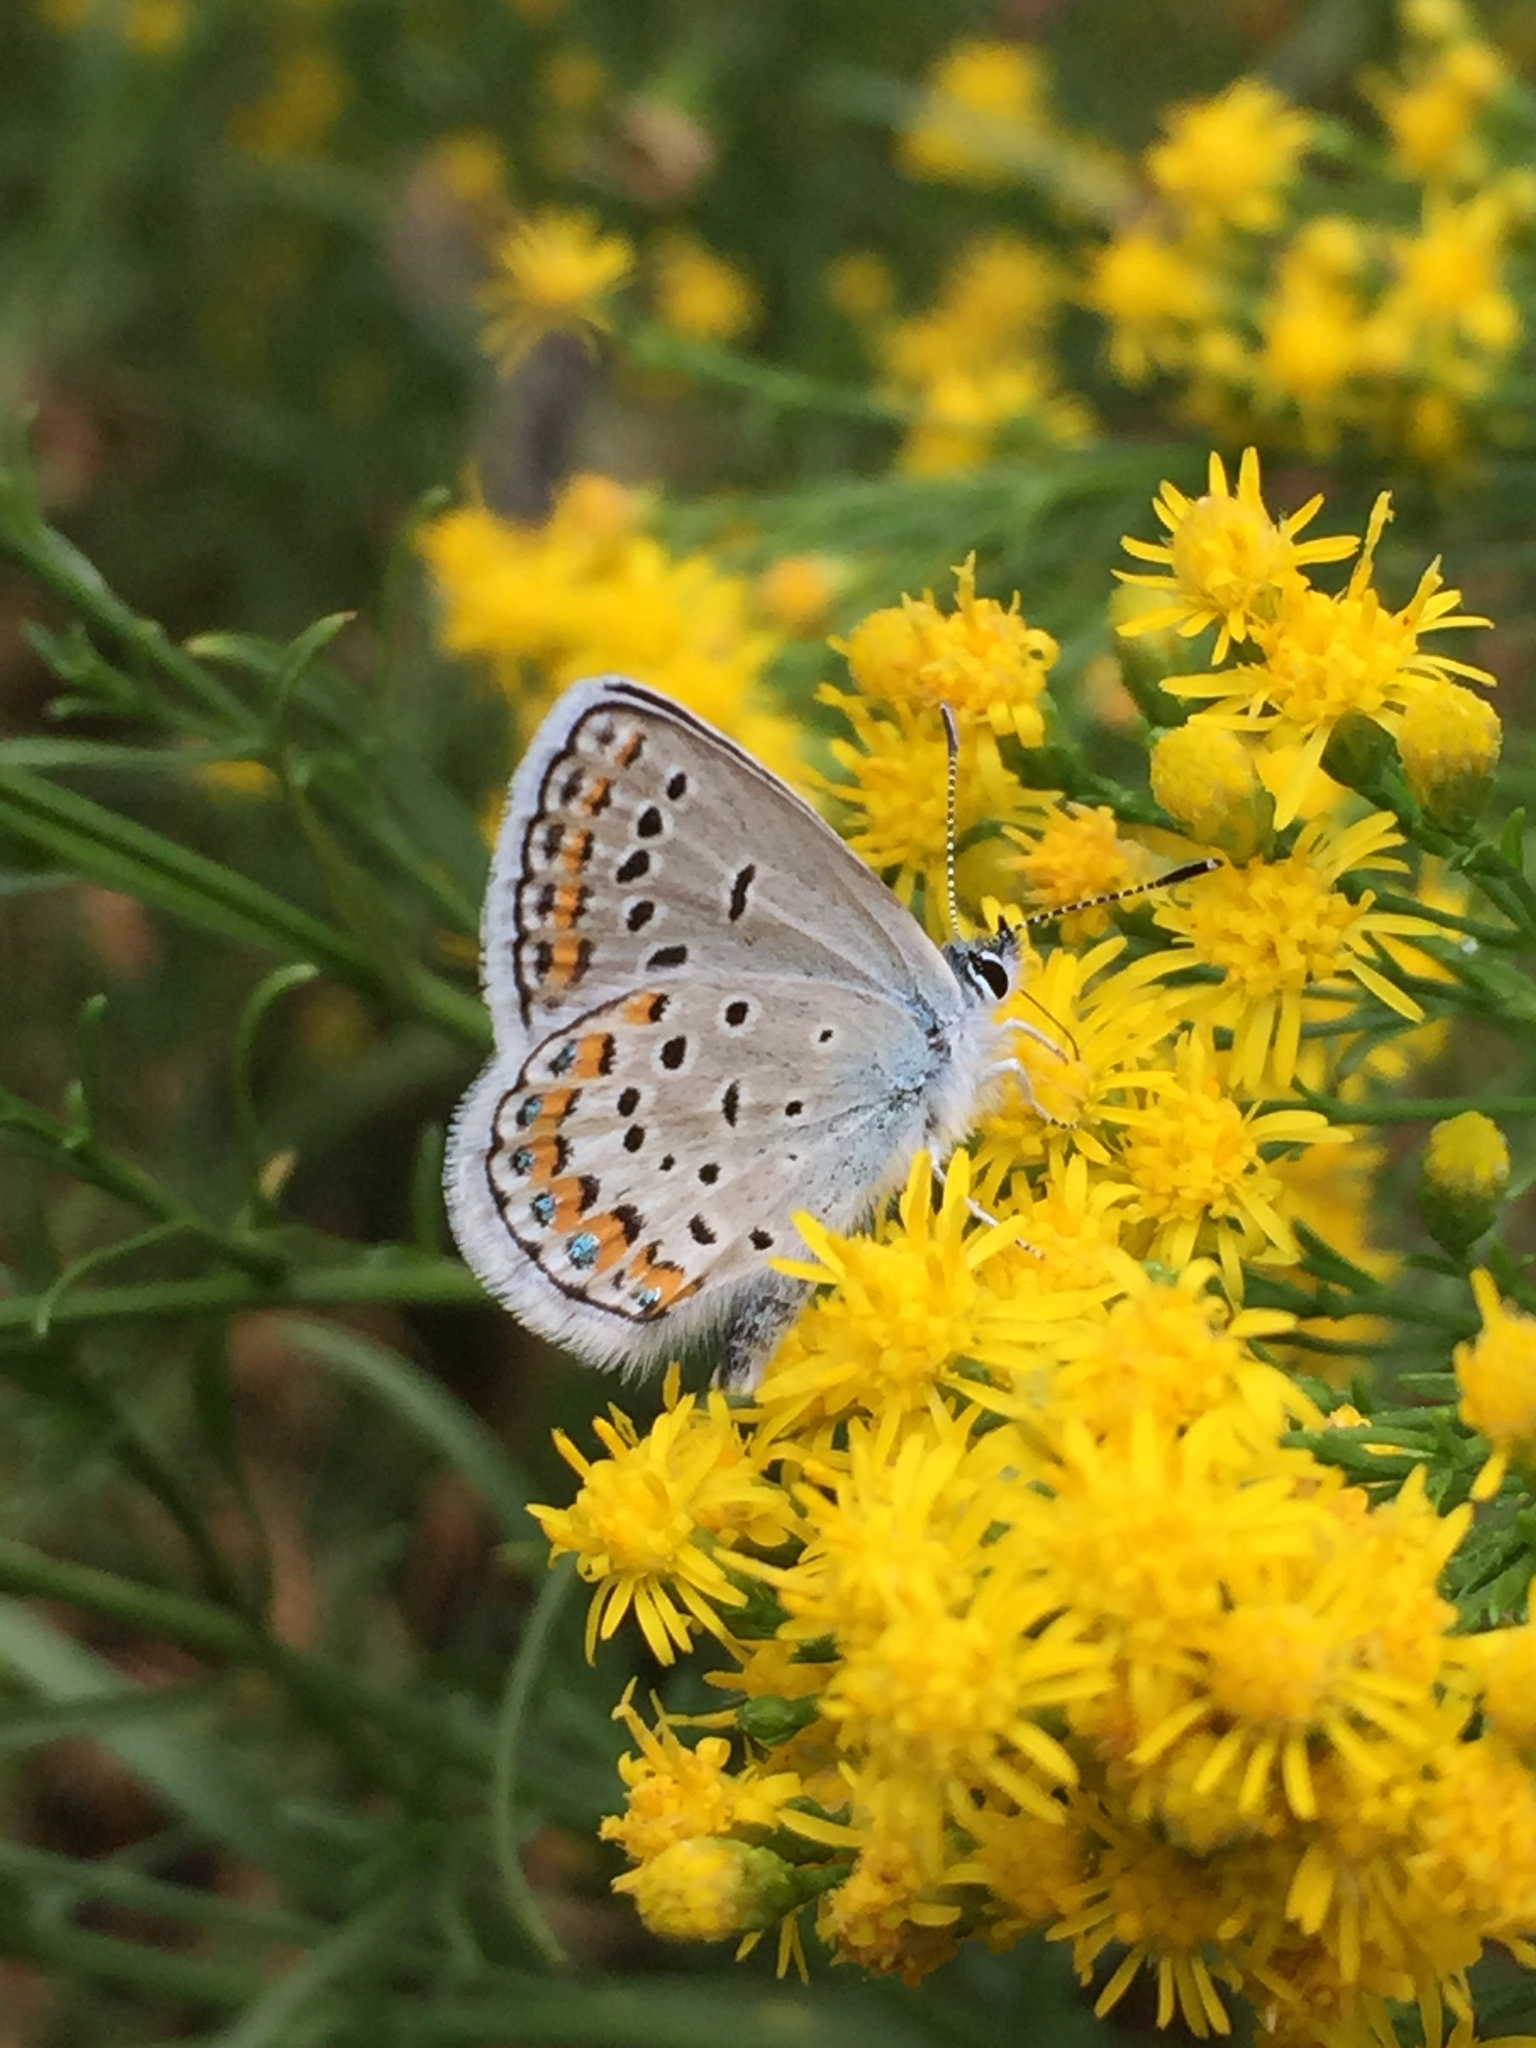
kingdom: Animalia
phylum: Arthropoda
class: Insecta
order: Lepidoptera
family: Lycaenidae
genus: Lycaeides
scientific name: Lycaeides melissa
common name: Melissa blue
